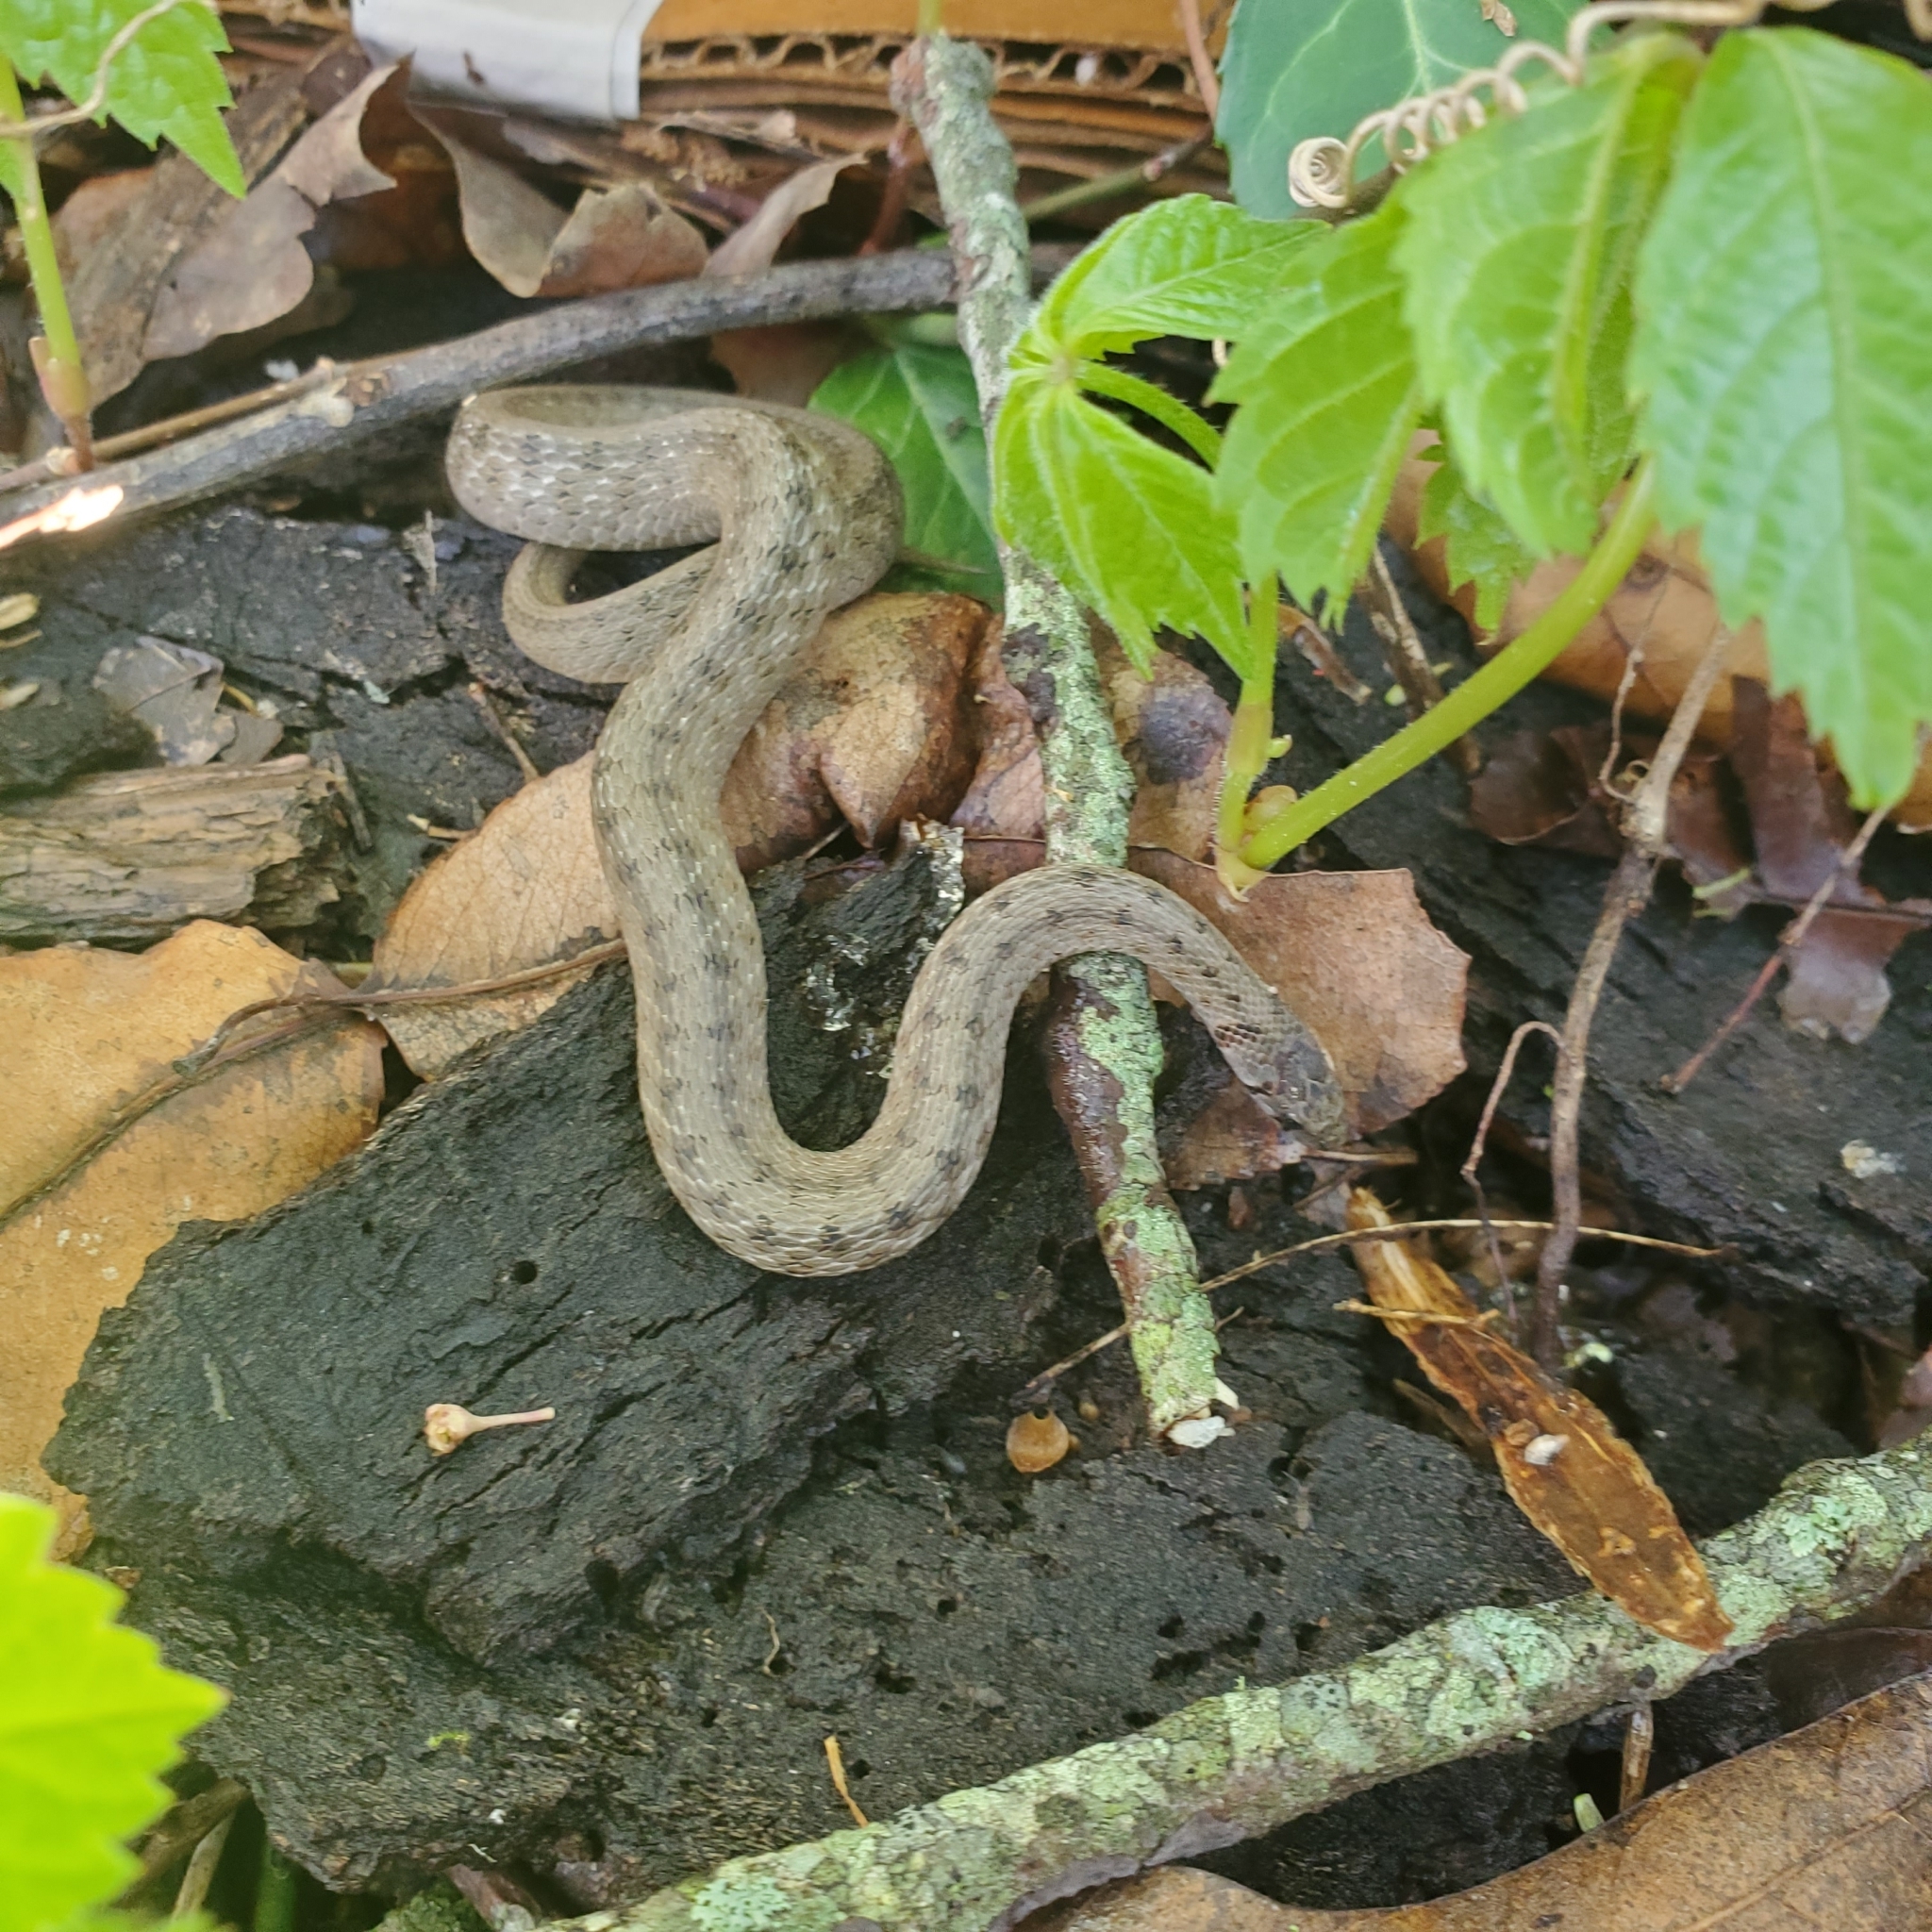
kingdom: Animalia
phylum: Chordata
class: Squamata
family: Colubridae
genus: Storeria
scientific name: Storeria dekayi
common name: (dekay’s) brown snake
